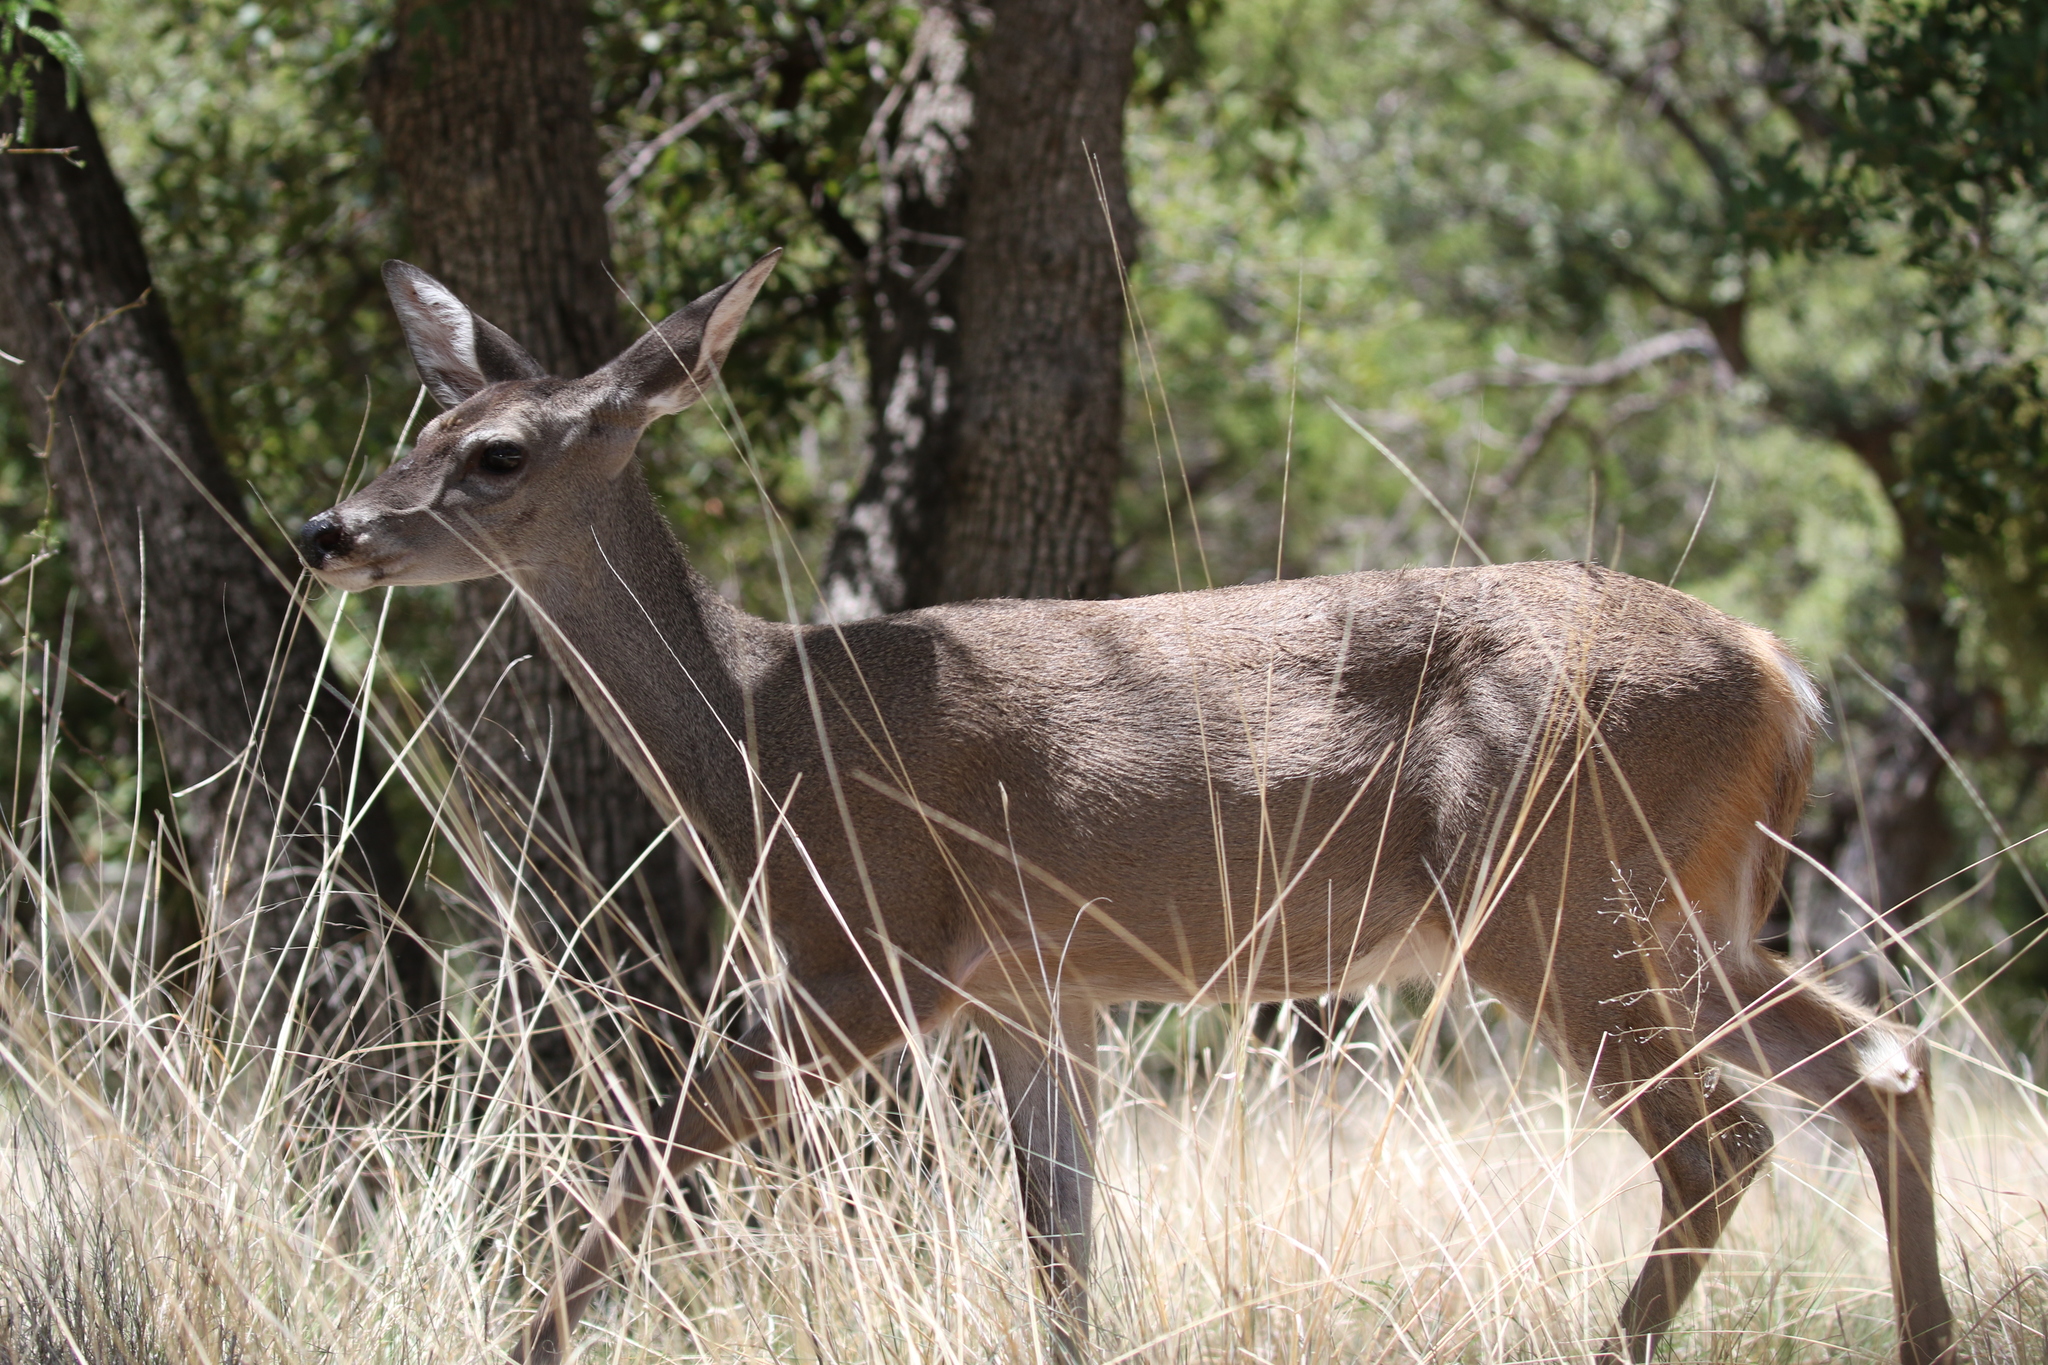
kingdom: Animalia
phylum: Chordata
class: Mammalia
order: Artiodactyla
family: Cervidae
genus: Odocoileus
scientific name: Odocoileus virginianus
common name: White-tailed deer
